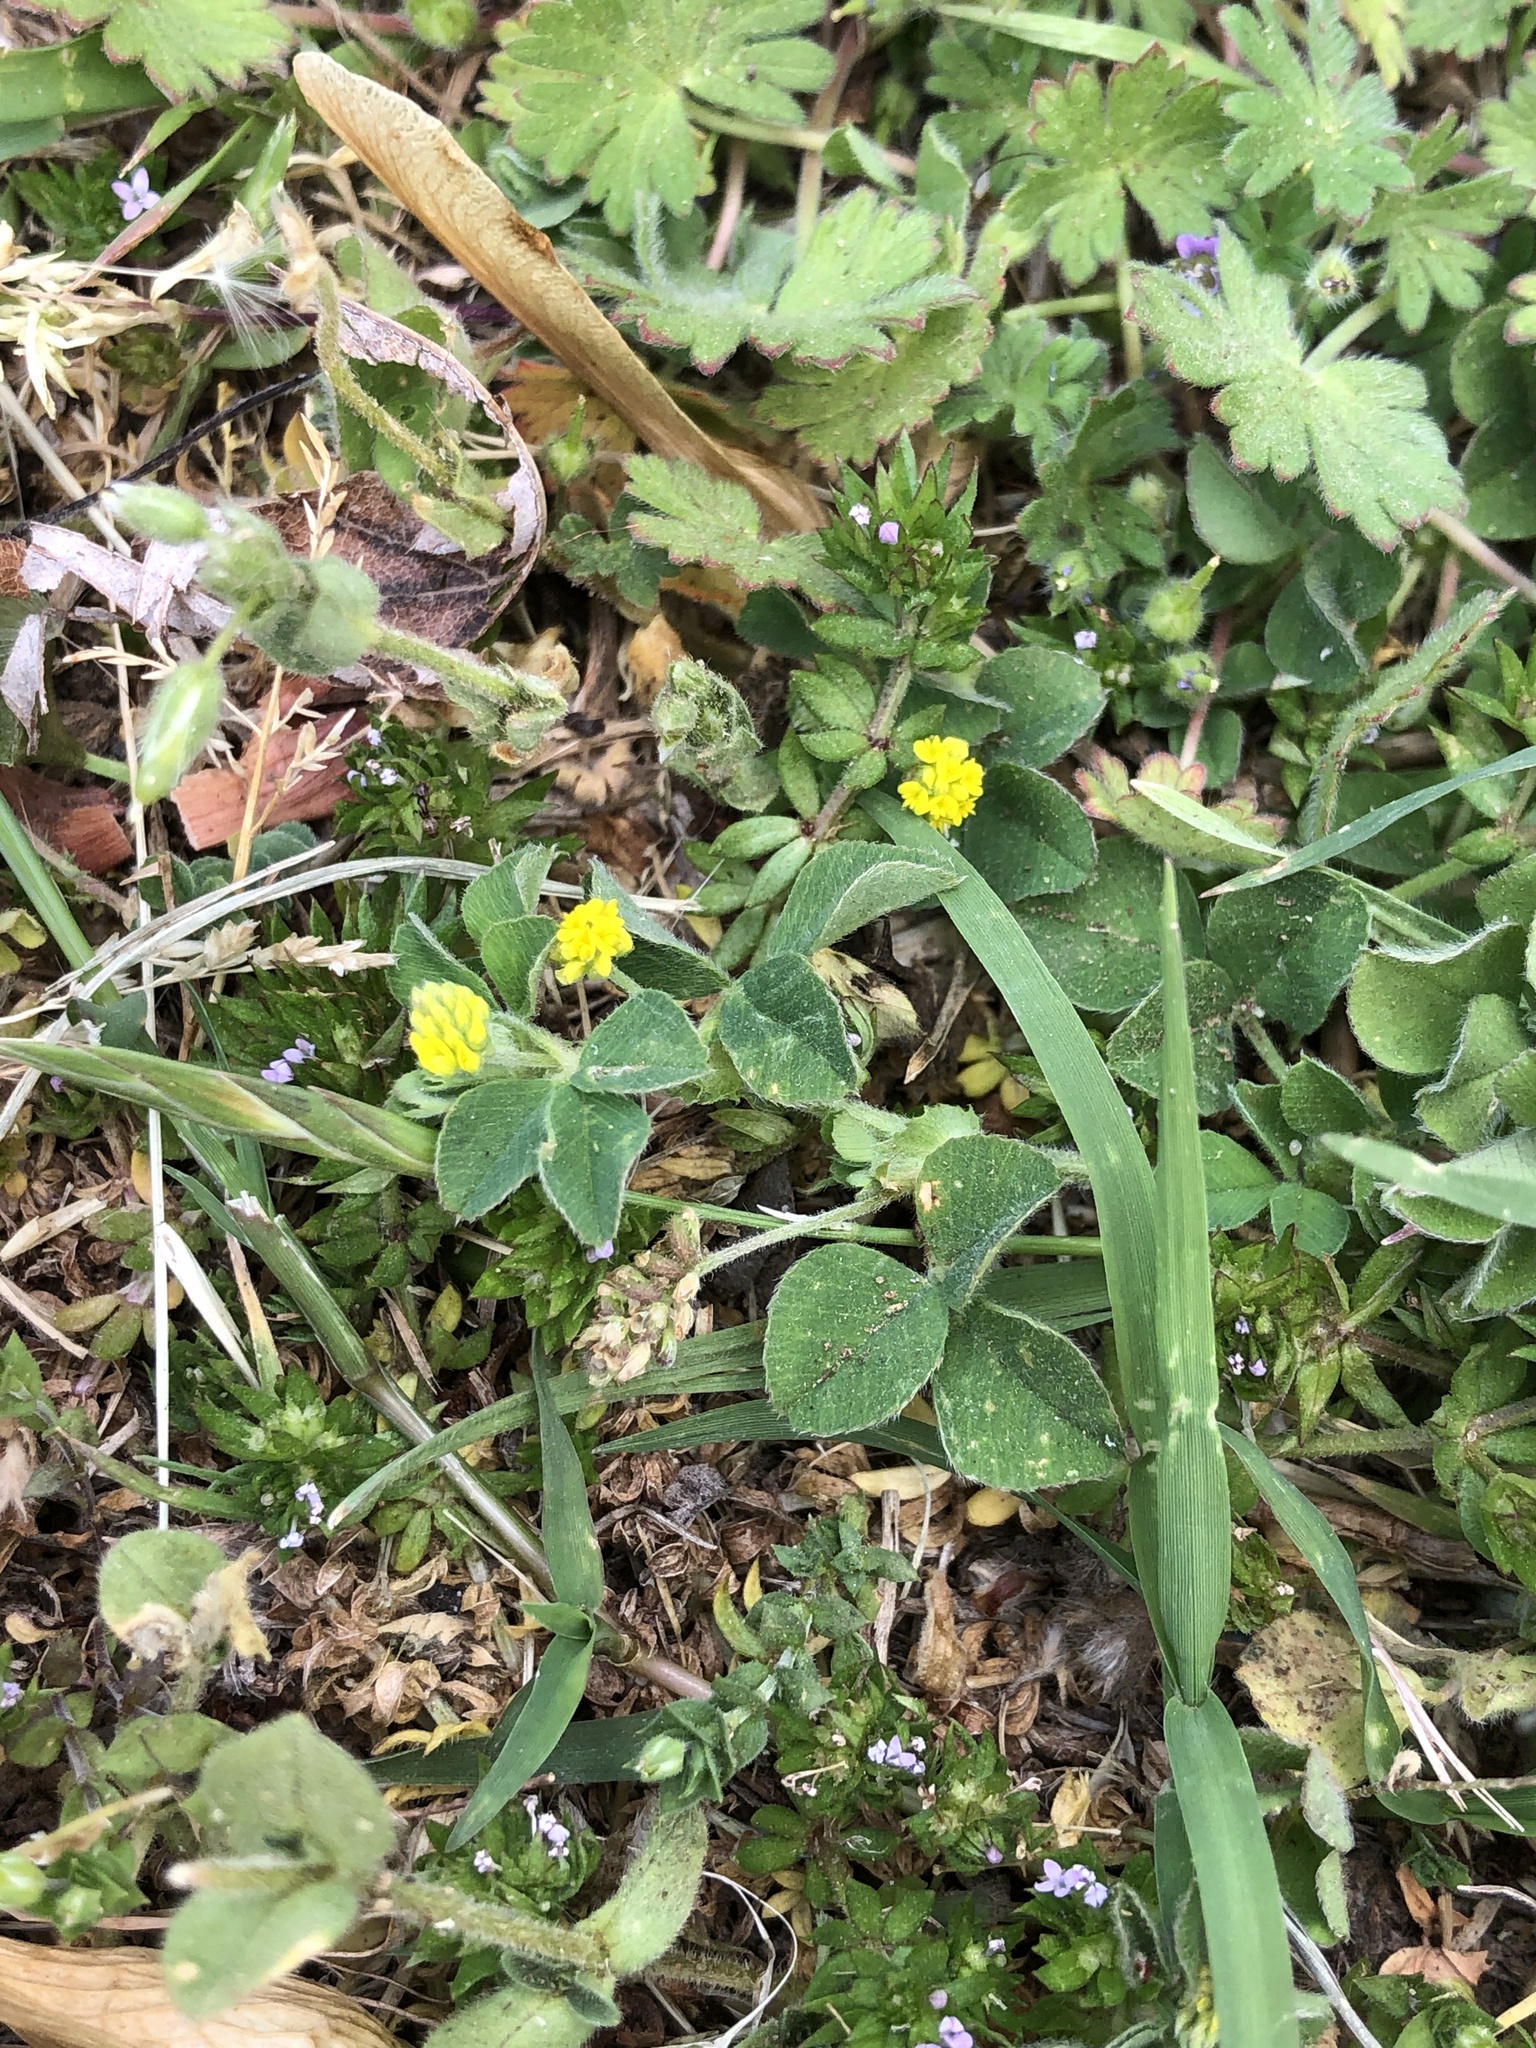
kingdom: Plantae
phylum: Tracheophyta
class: Magnoliopsida
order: Fabales
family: Fabaceae
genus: Medicago
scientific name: Medicago lupulina
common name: Black medick
